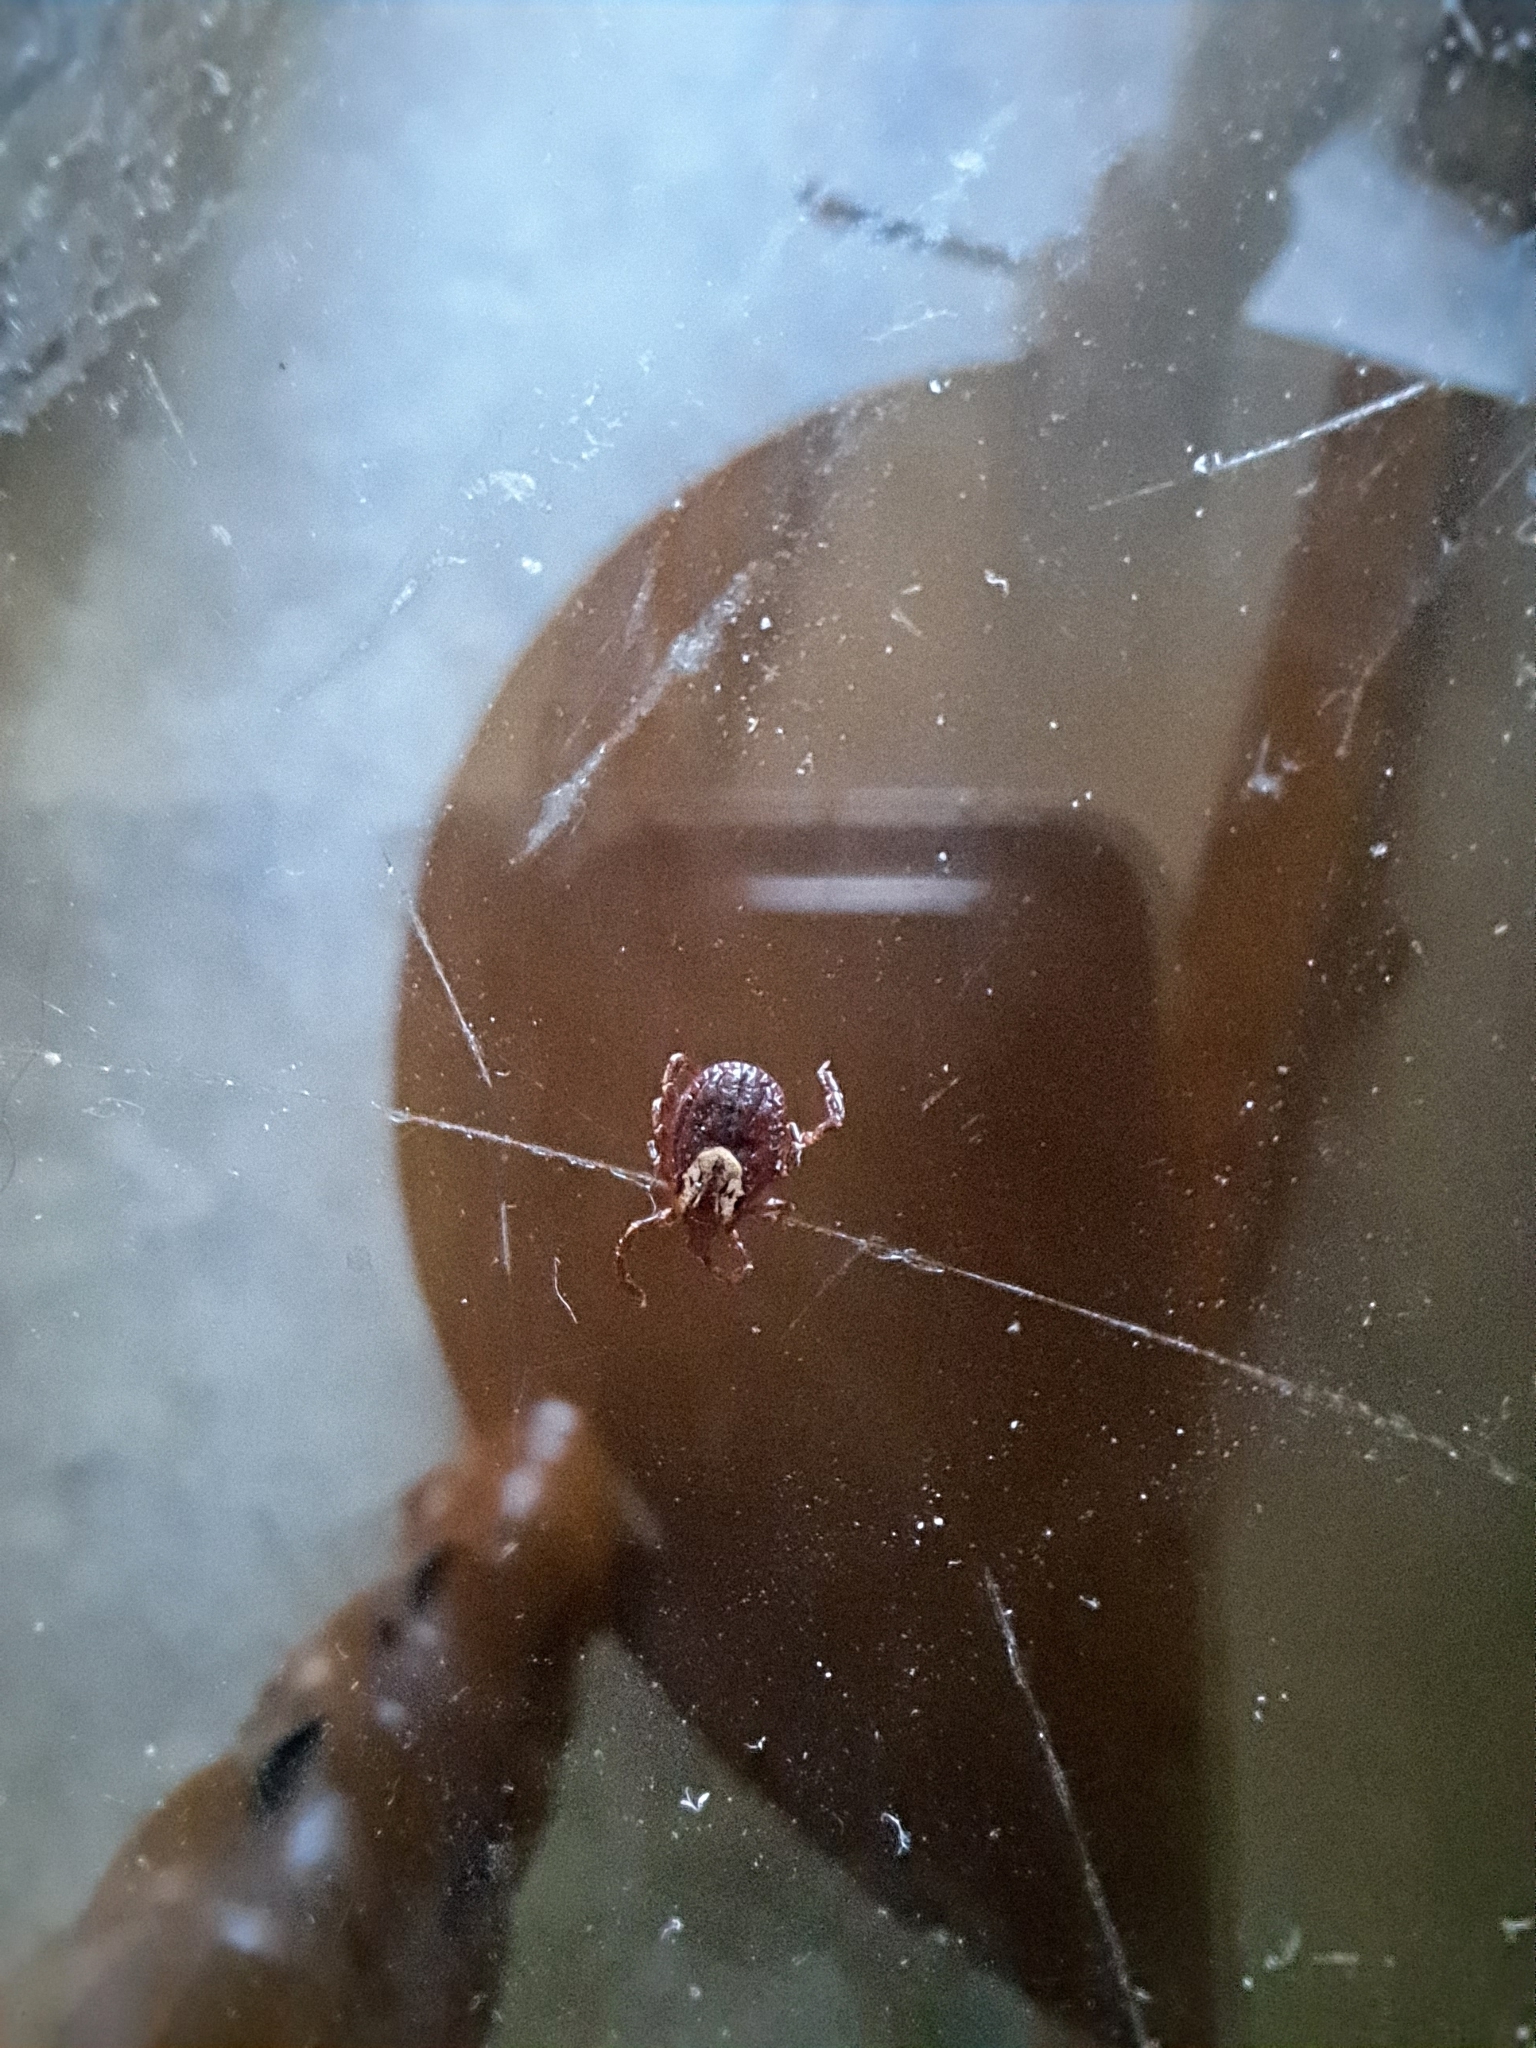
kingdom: Animalia
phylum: Arthropoda
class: Arachnida
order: Ixodida
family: Ixodidae
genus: Dermacentor
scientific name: Dermacentor variabilis
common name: American dog tick
